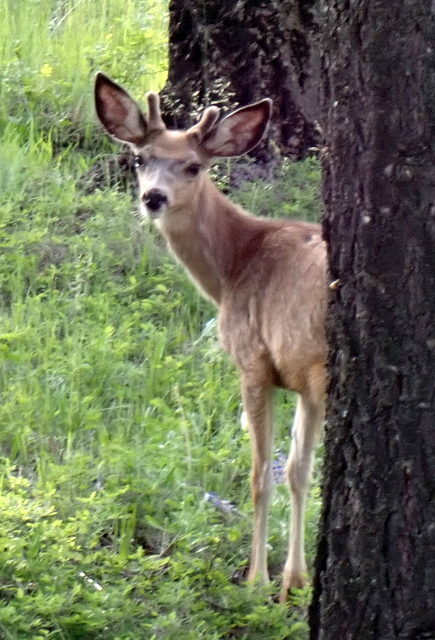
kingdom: Animalia
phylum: Chordata
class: Mammalia
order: Artiodactyla
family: Cervidae
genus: Odocoileus
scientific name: Odocoileus hemionus
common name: Mule deer
